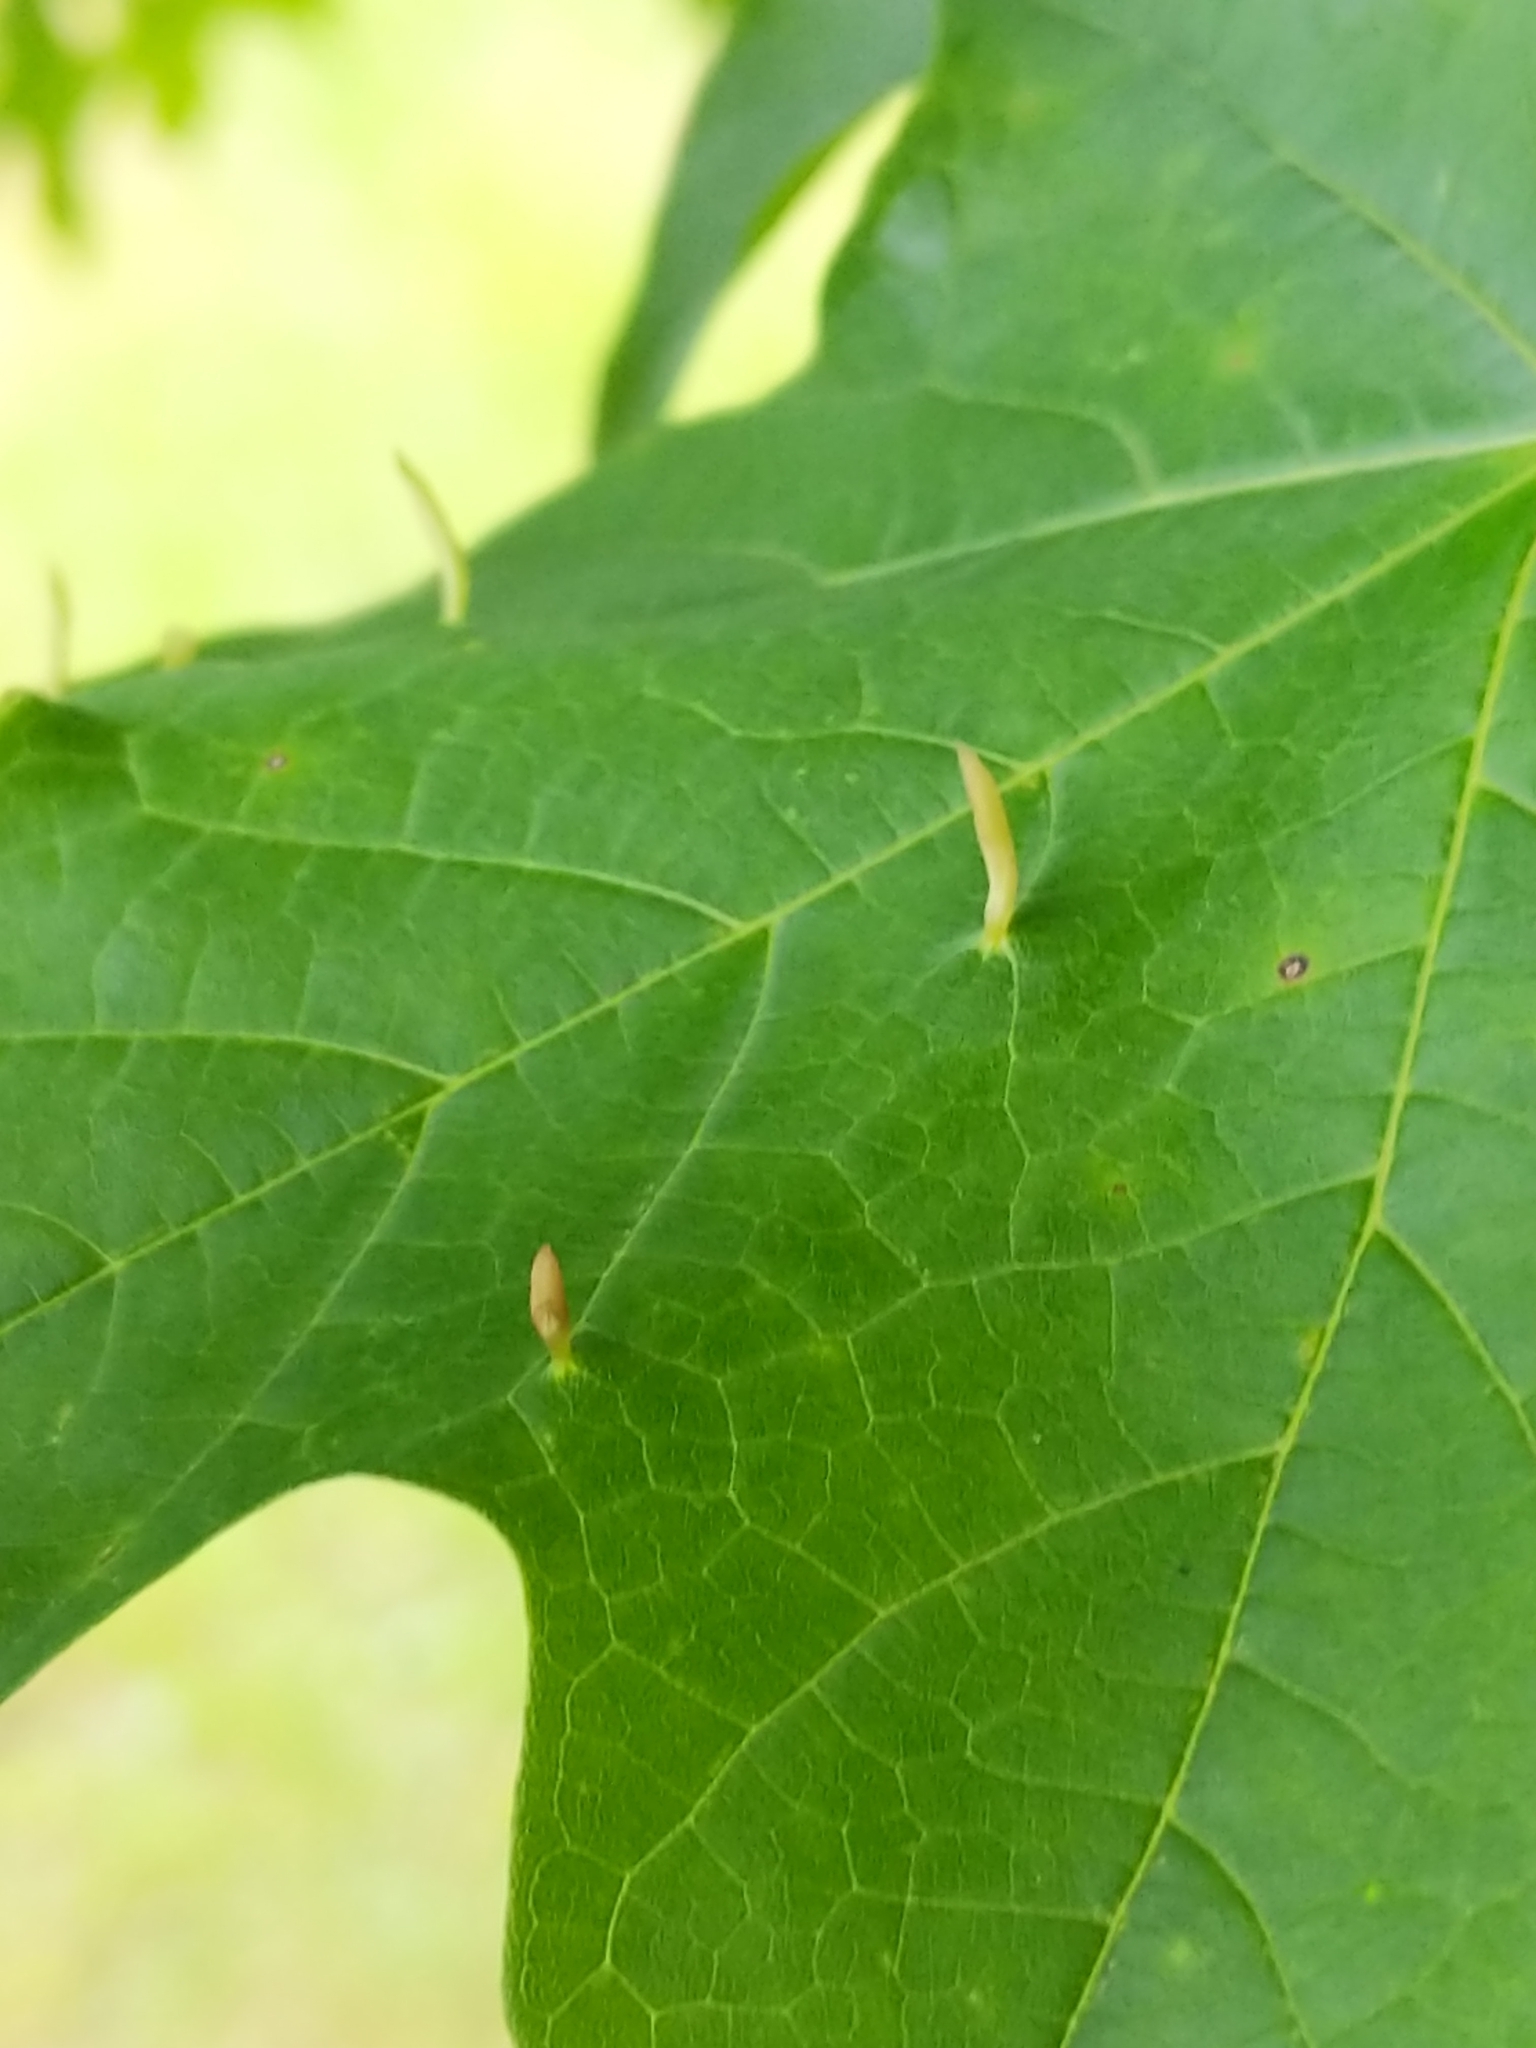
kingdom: Animalia
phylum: Arthropoda
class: Arachnida
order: Trombidiformes
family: Eriophyidae
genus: Vasates
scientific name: Vasates aceriscrumena
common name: Maple spindle gall mite
